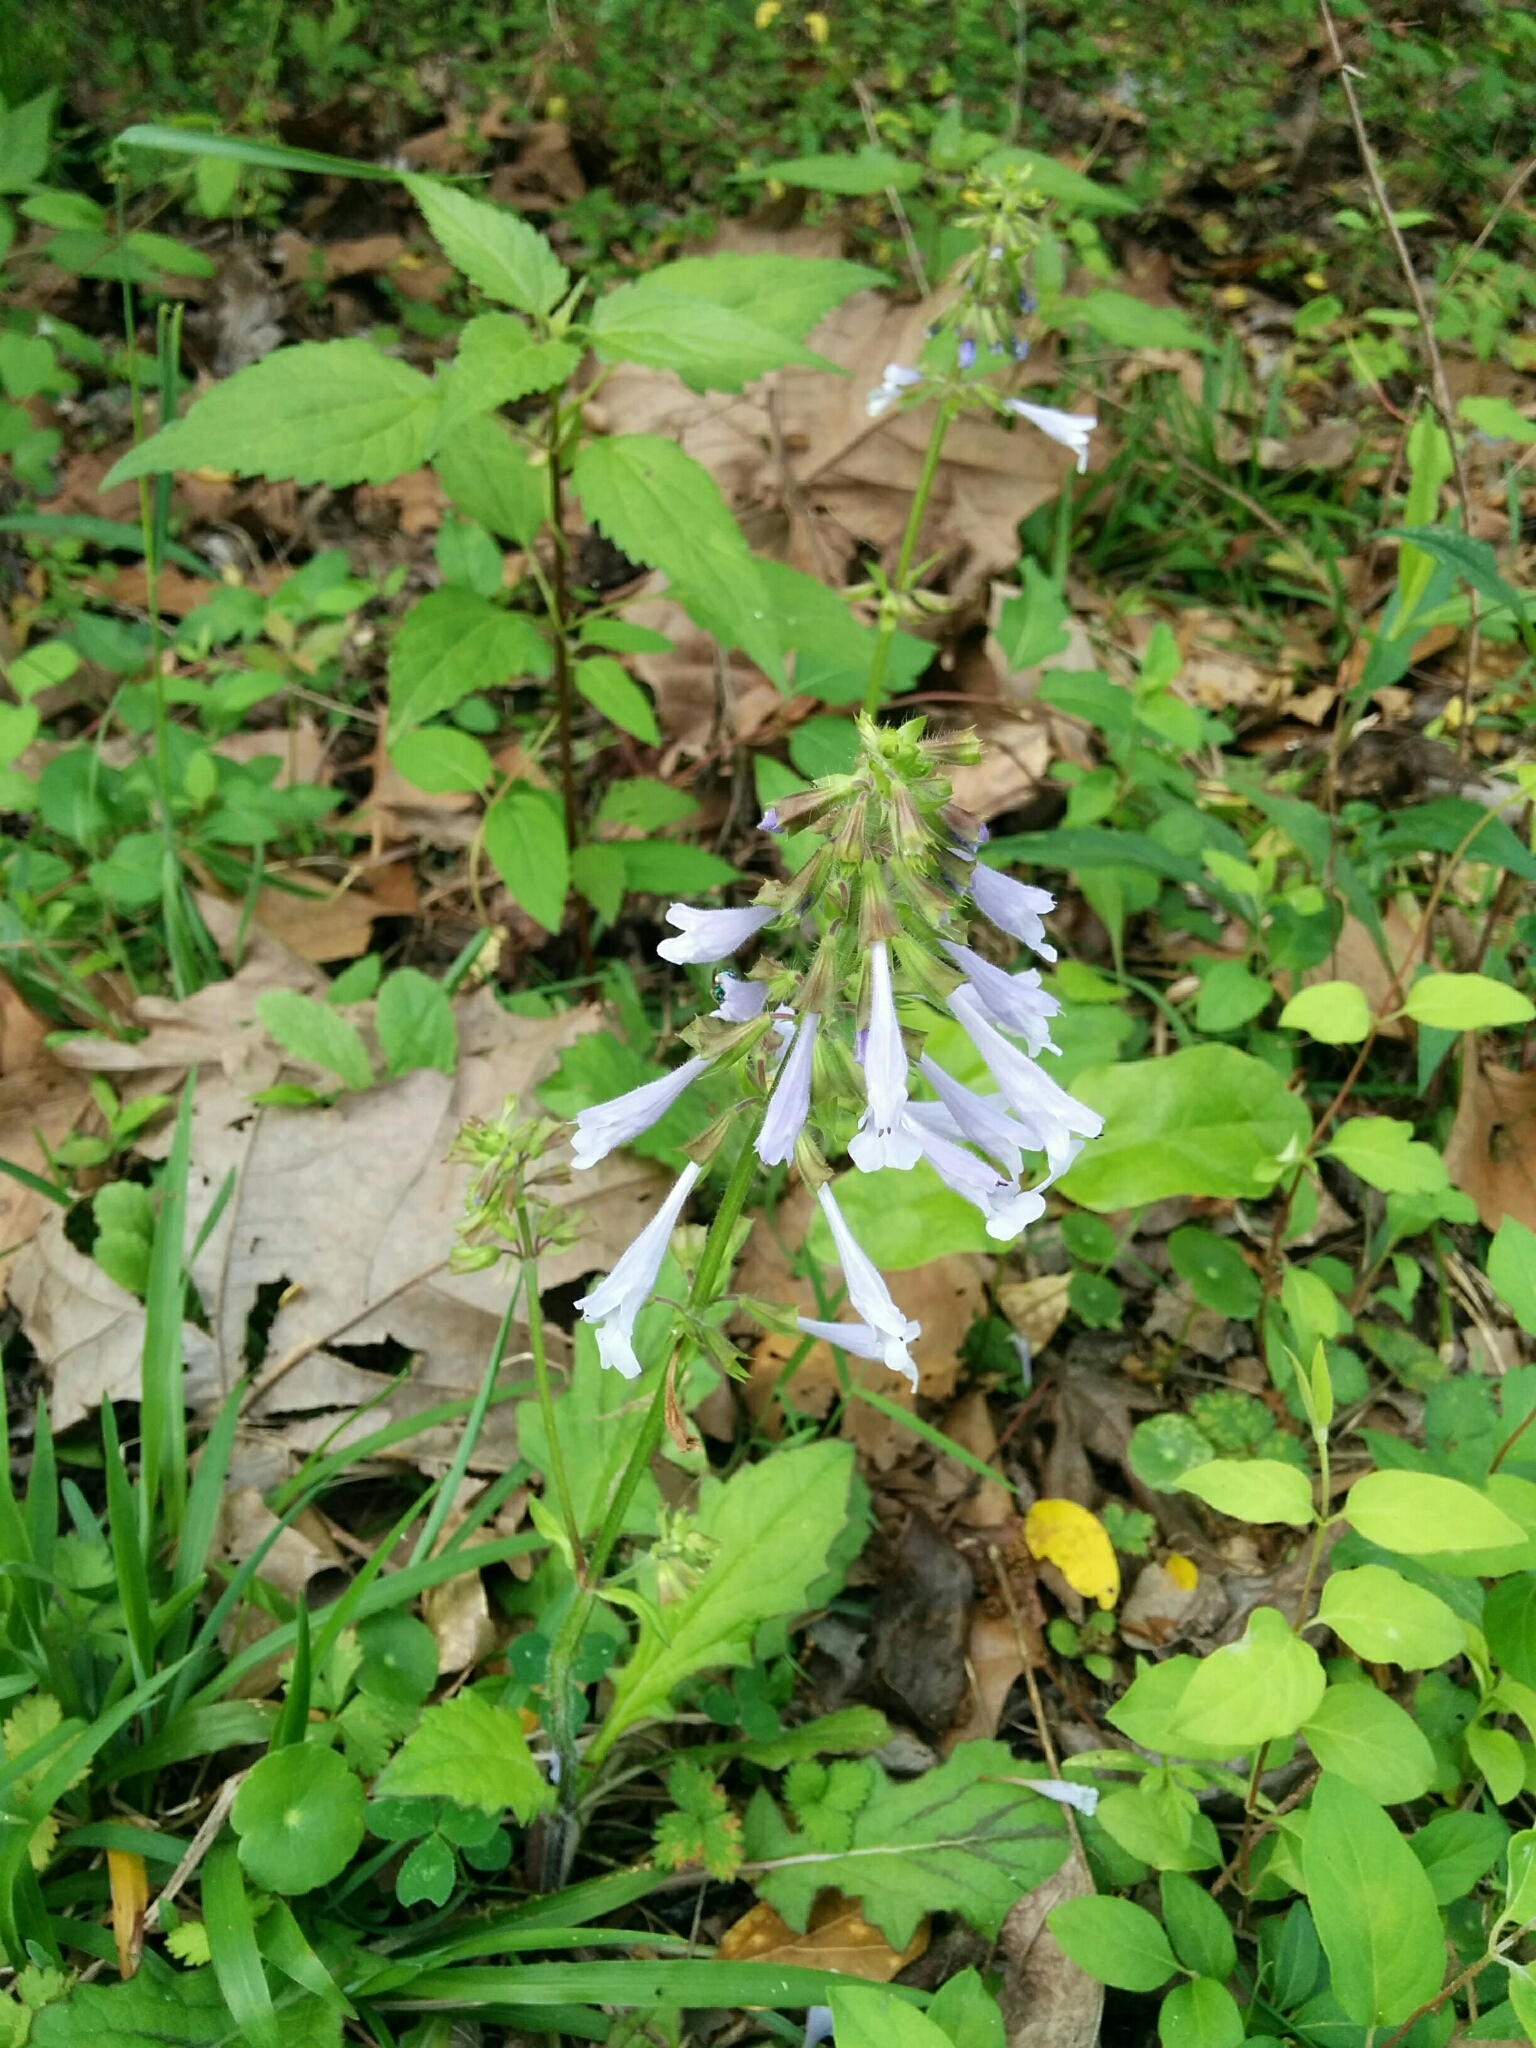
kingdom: Plantae
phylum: Tracheophyta
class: Magnoliopsida
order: Lamiales
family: Lamiaceae
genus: Salvia
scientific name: Salvia lyrata
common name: Cancerweed
